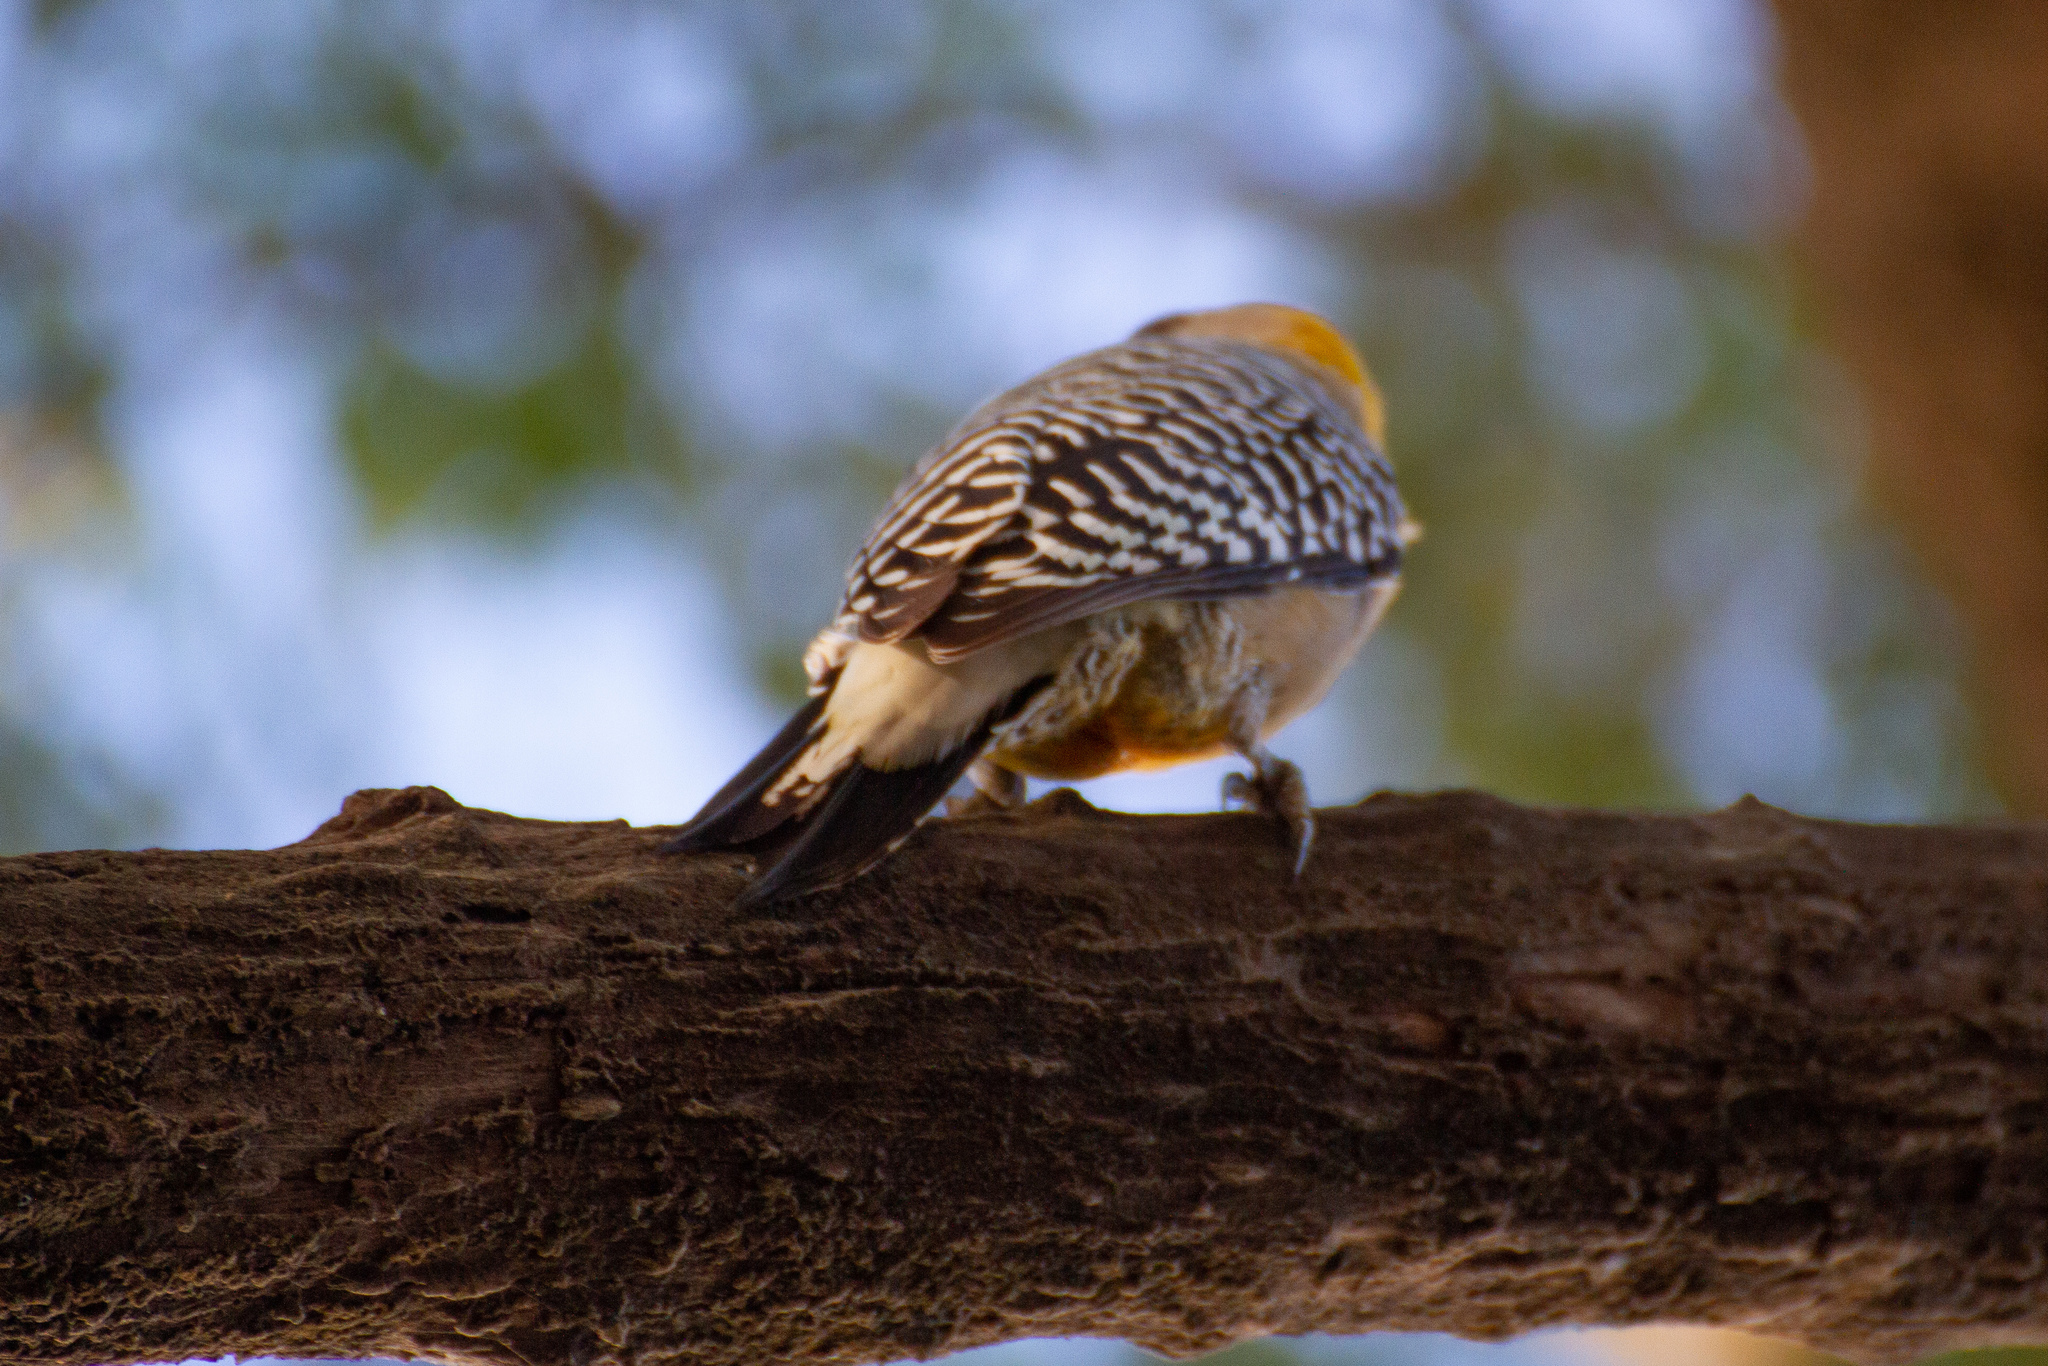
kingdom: Animalia
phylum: Chordata
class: Aves
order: Piciformes
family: Picidae
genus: Melanerpes
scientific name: Melanerpes hoffmannii
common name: Hoffmann's woodpecker
